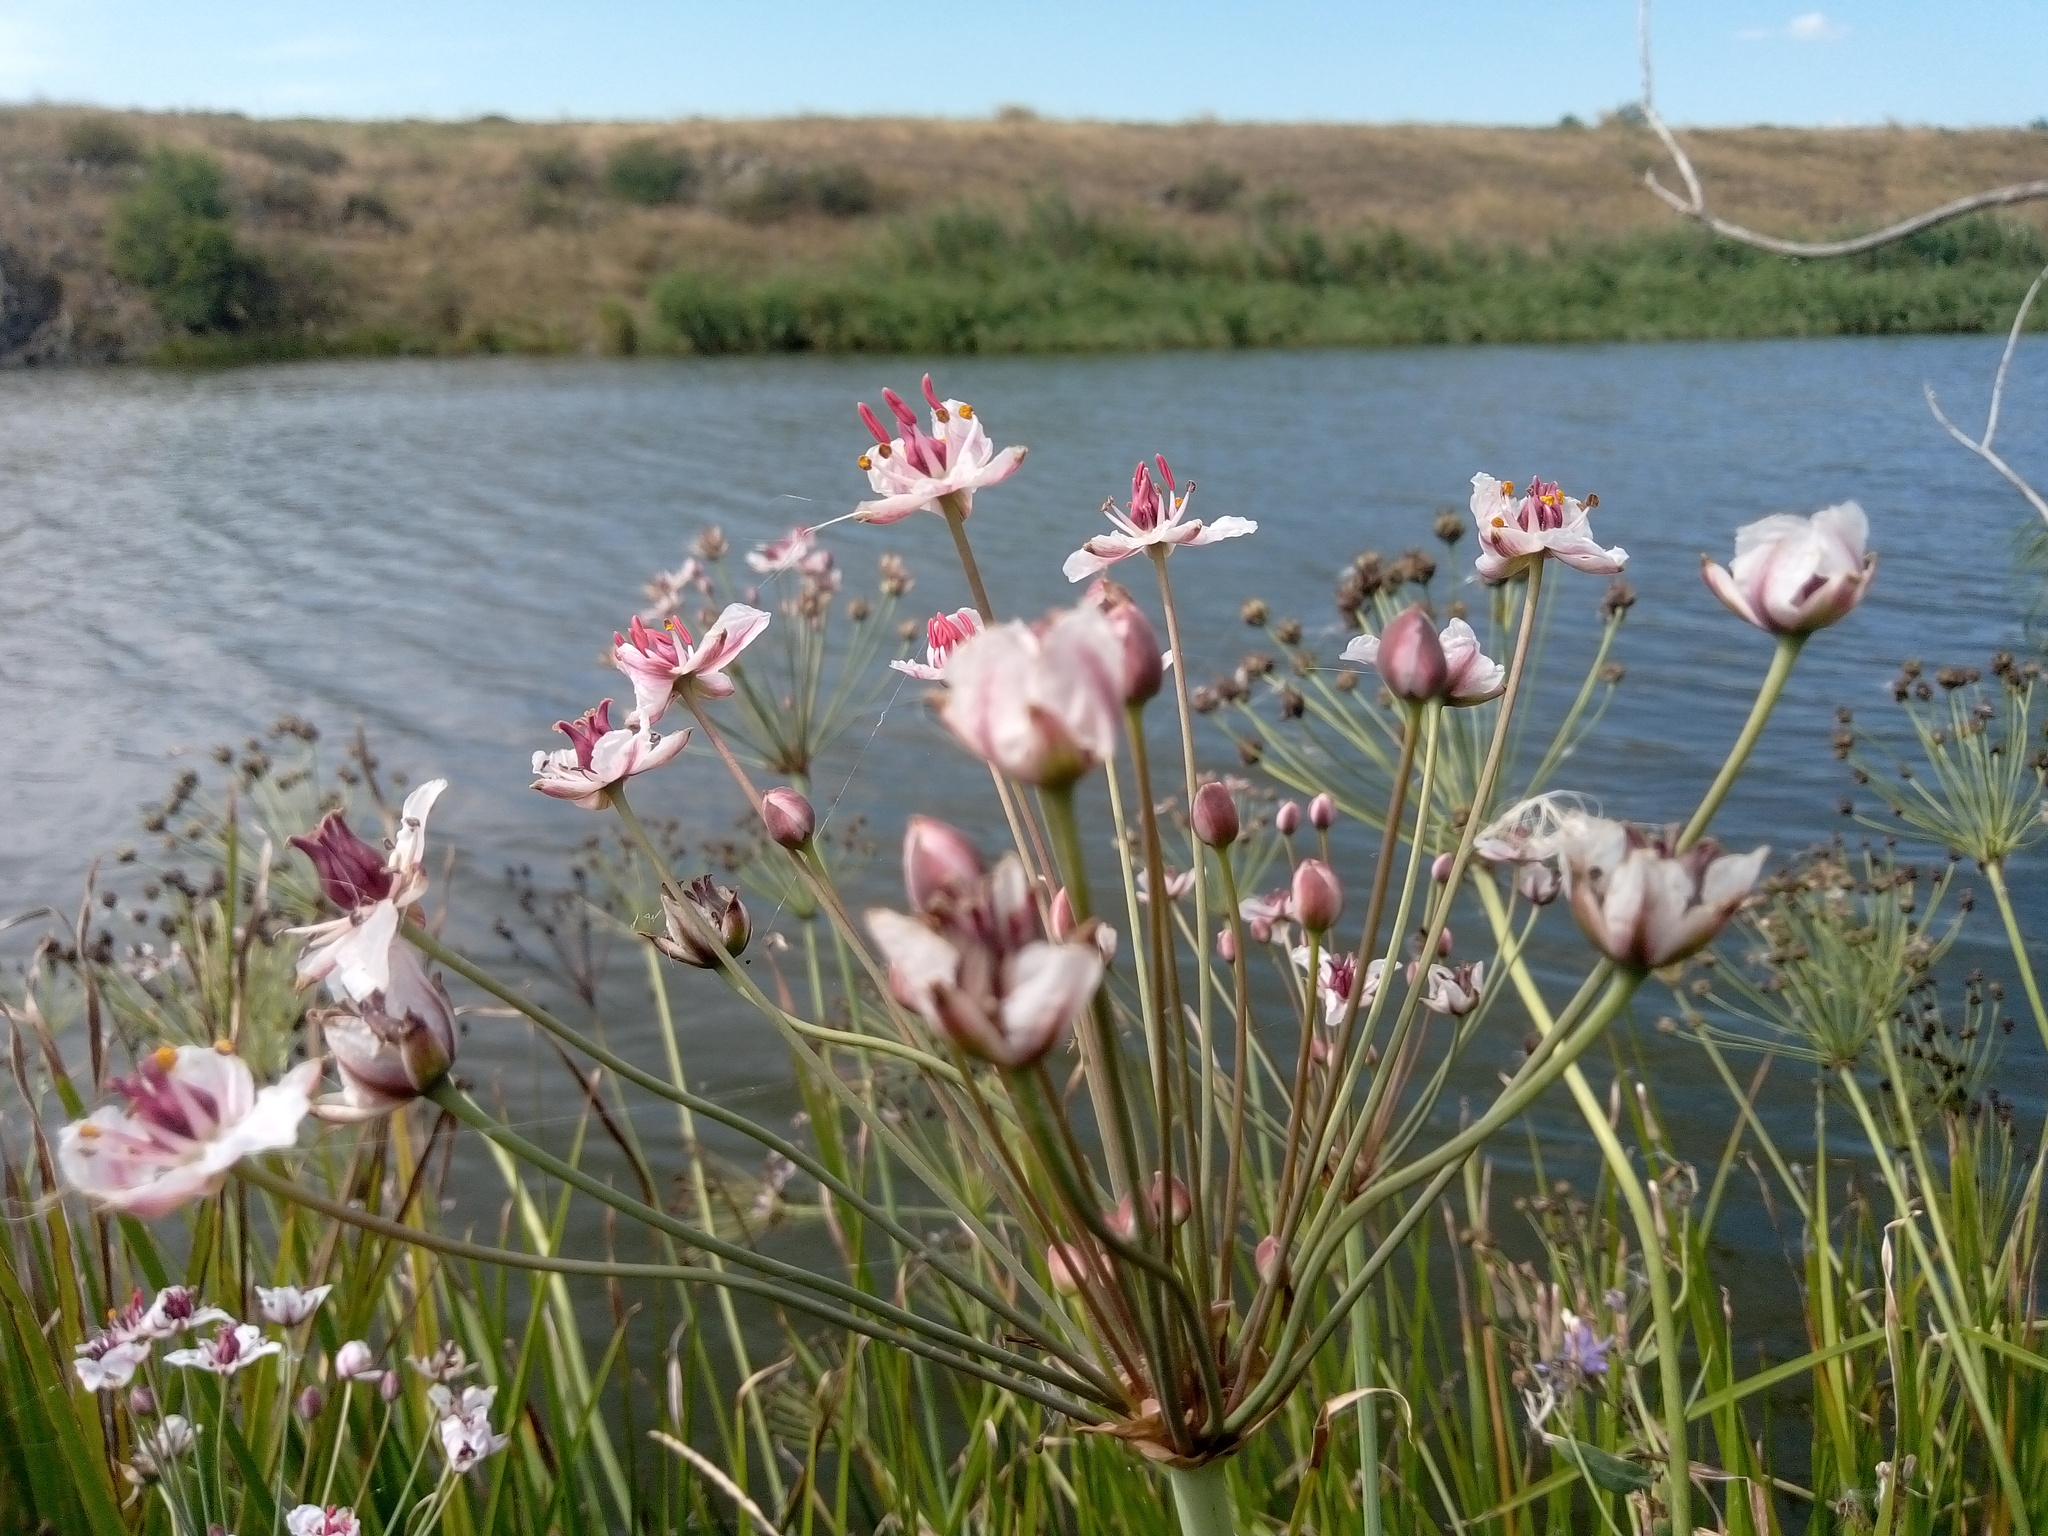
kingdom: Plantae
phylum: Tracheophyta
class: Liliopsida
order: Alismatales
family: Butomaceae
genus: Butomus
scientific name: Butomus umbellatus
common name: Flowering-rush
